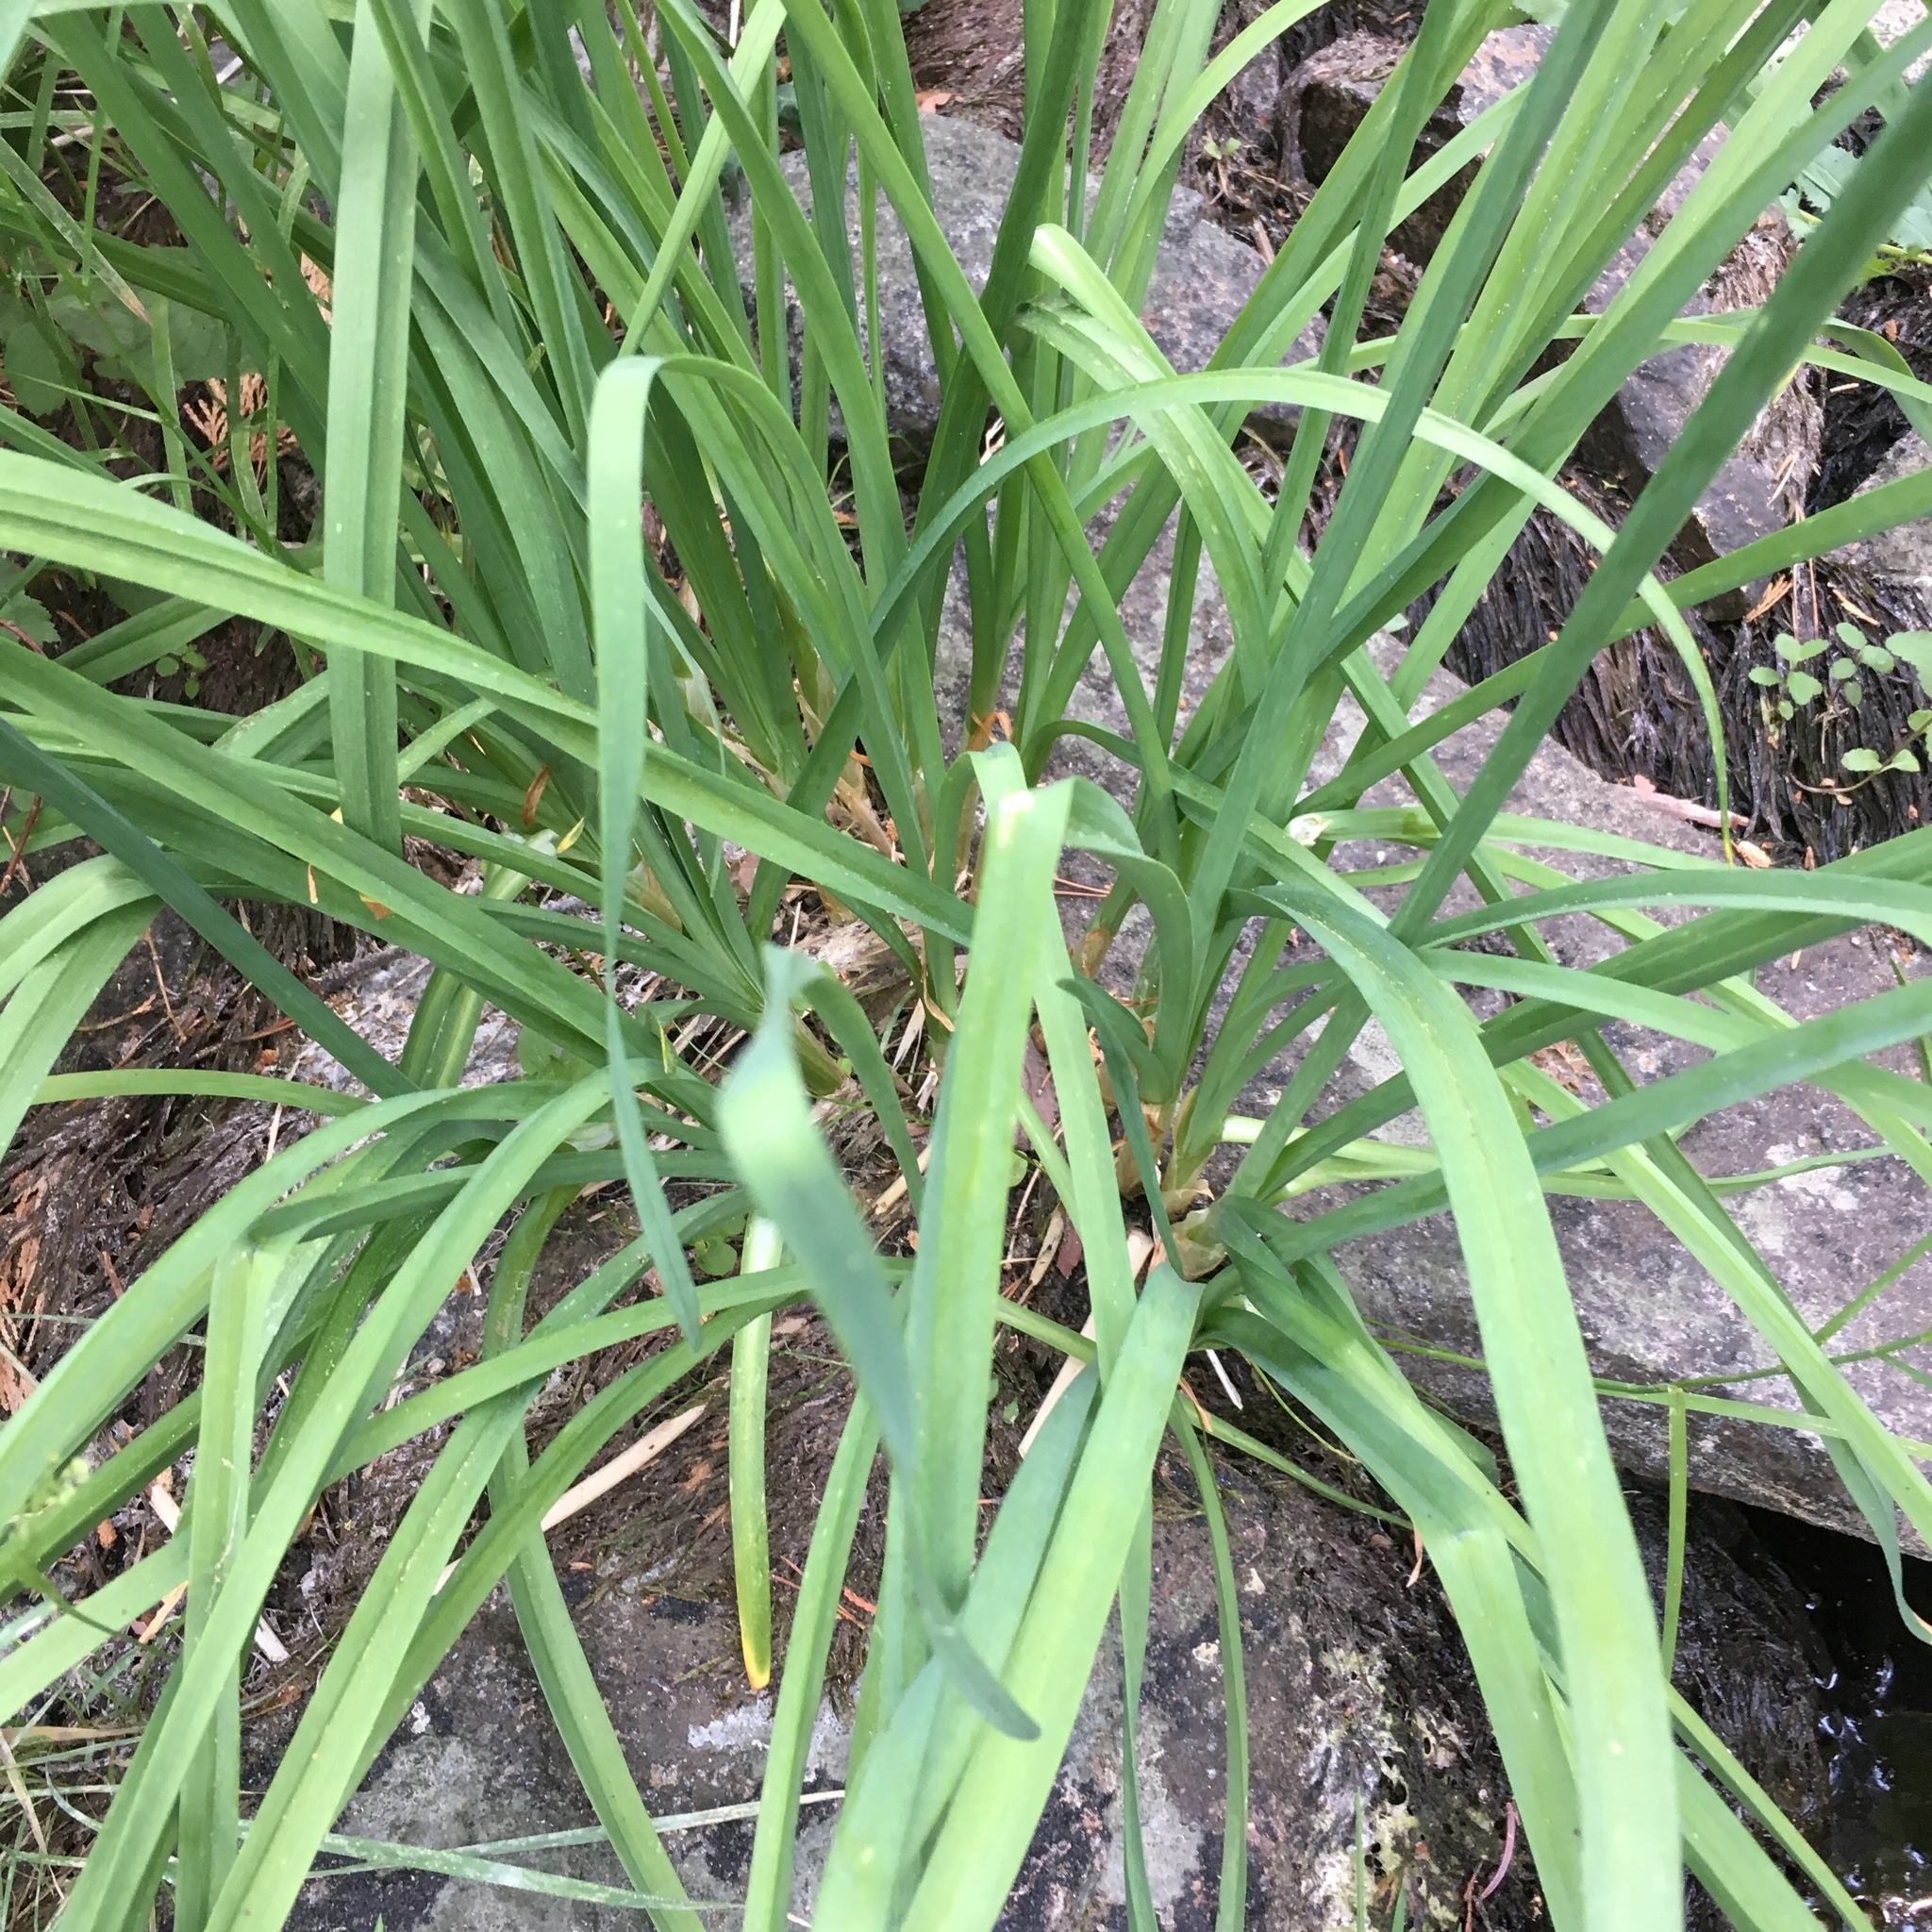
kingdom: Plantae
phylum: Tracheophyta
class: Liliopsida
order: Asparagales
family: Amaryllidaceae
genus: Allium
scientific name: Allium validum
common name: Pacific mountain onion
